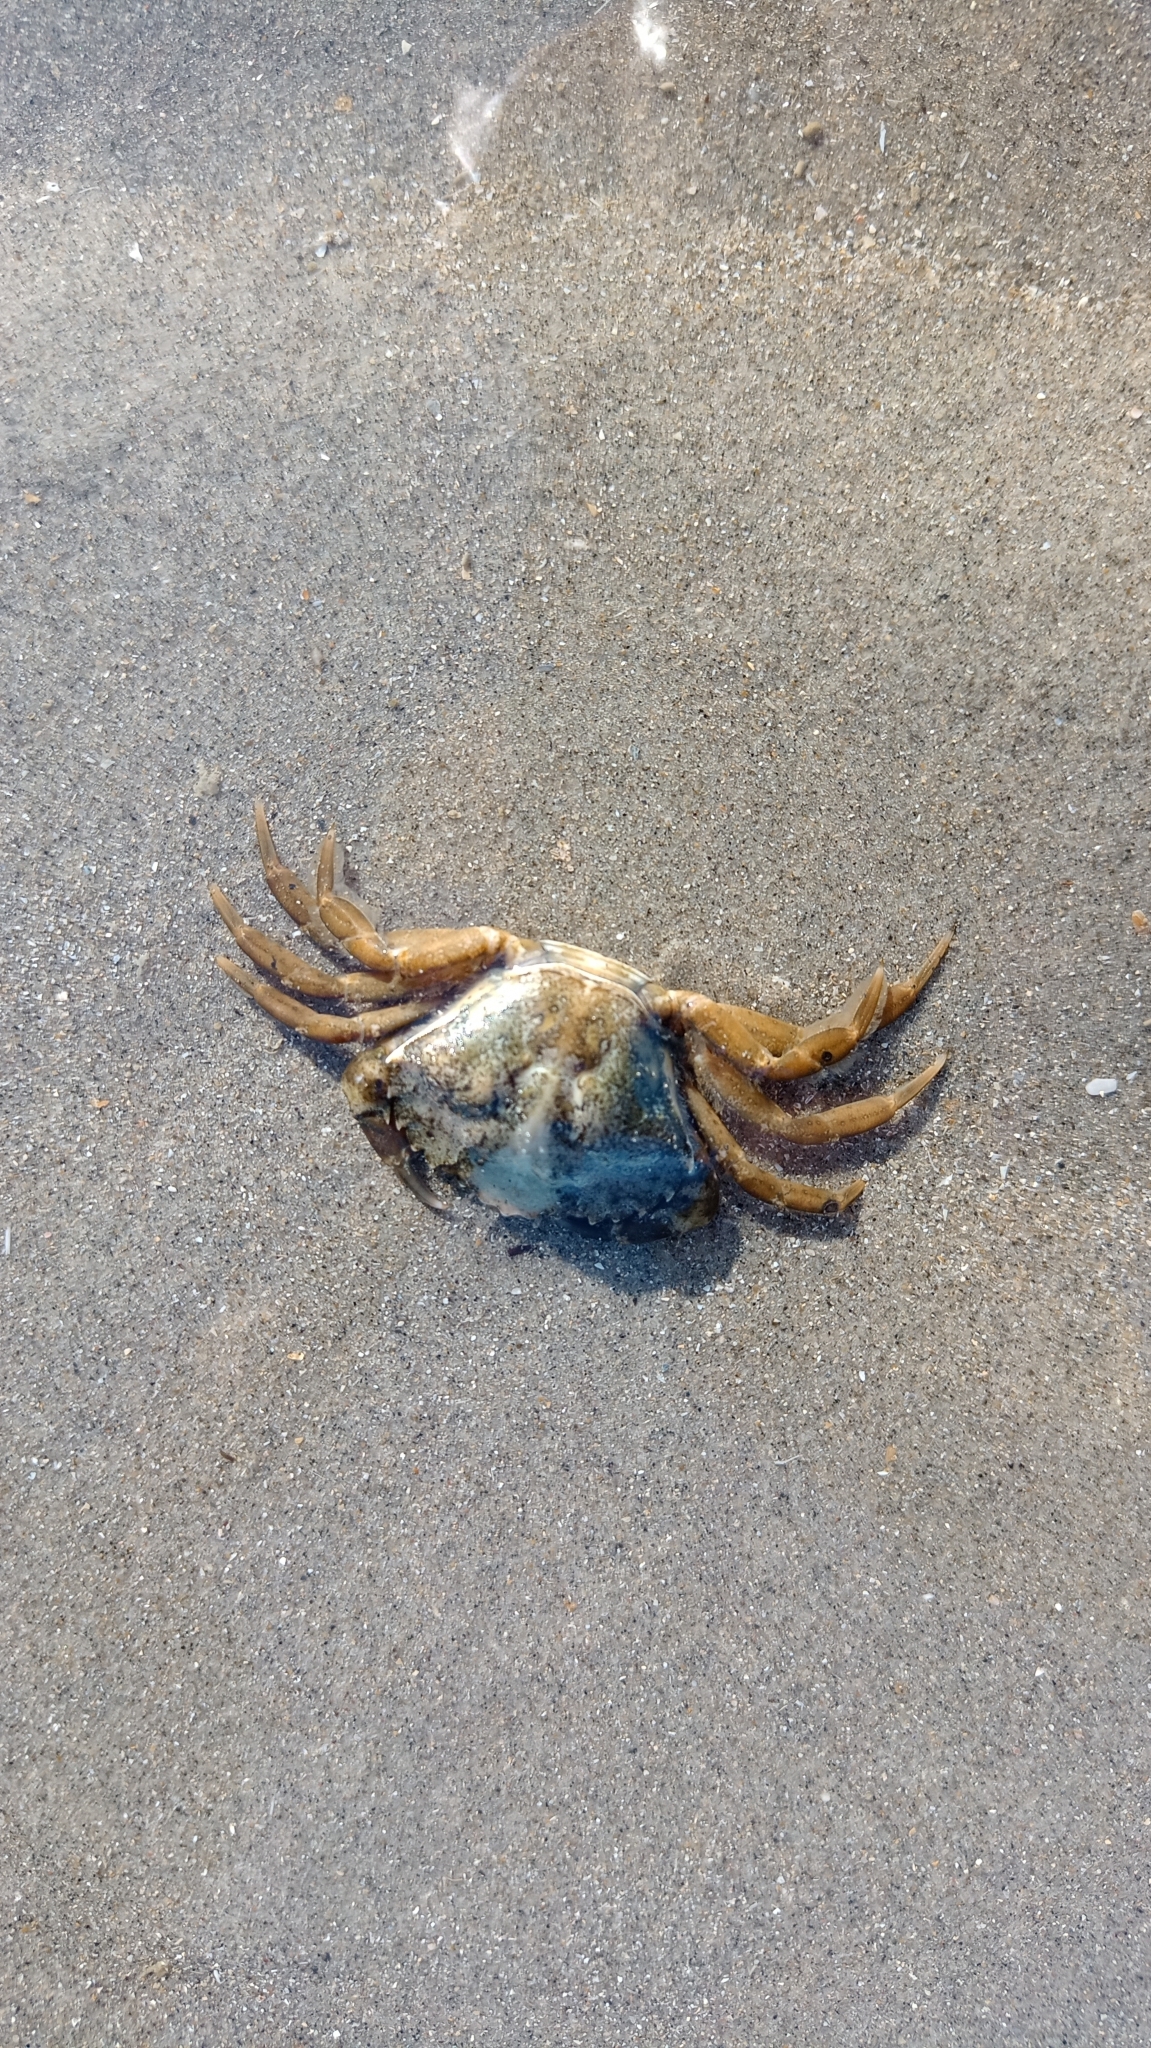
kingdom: Animalia
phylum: Arthropoda
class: Malacostraca
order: Decapoda
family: Carcinidae
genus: Carcinus
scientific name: Carcinus maenas
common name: European green crab
